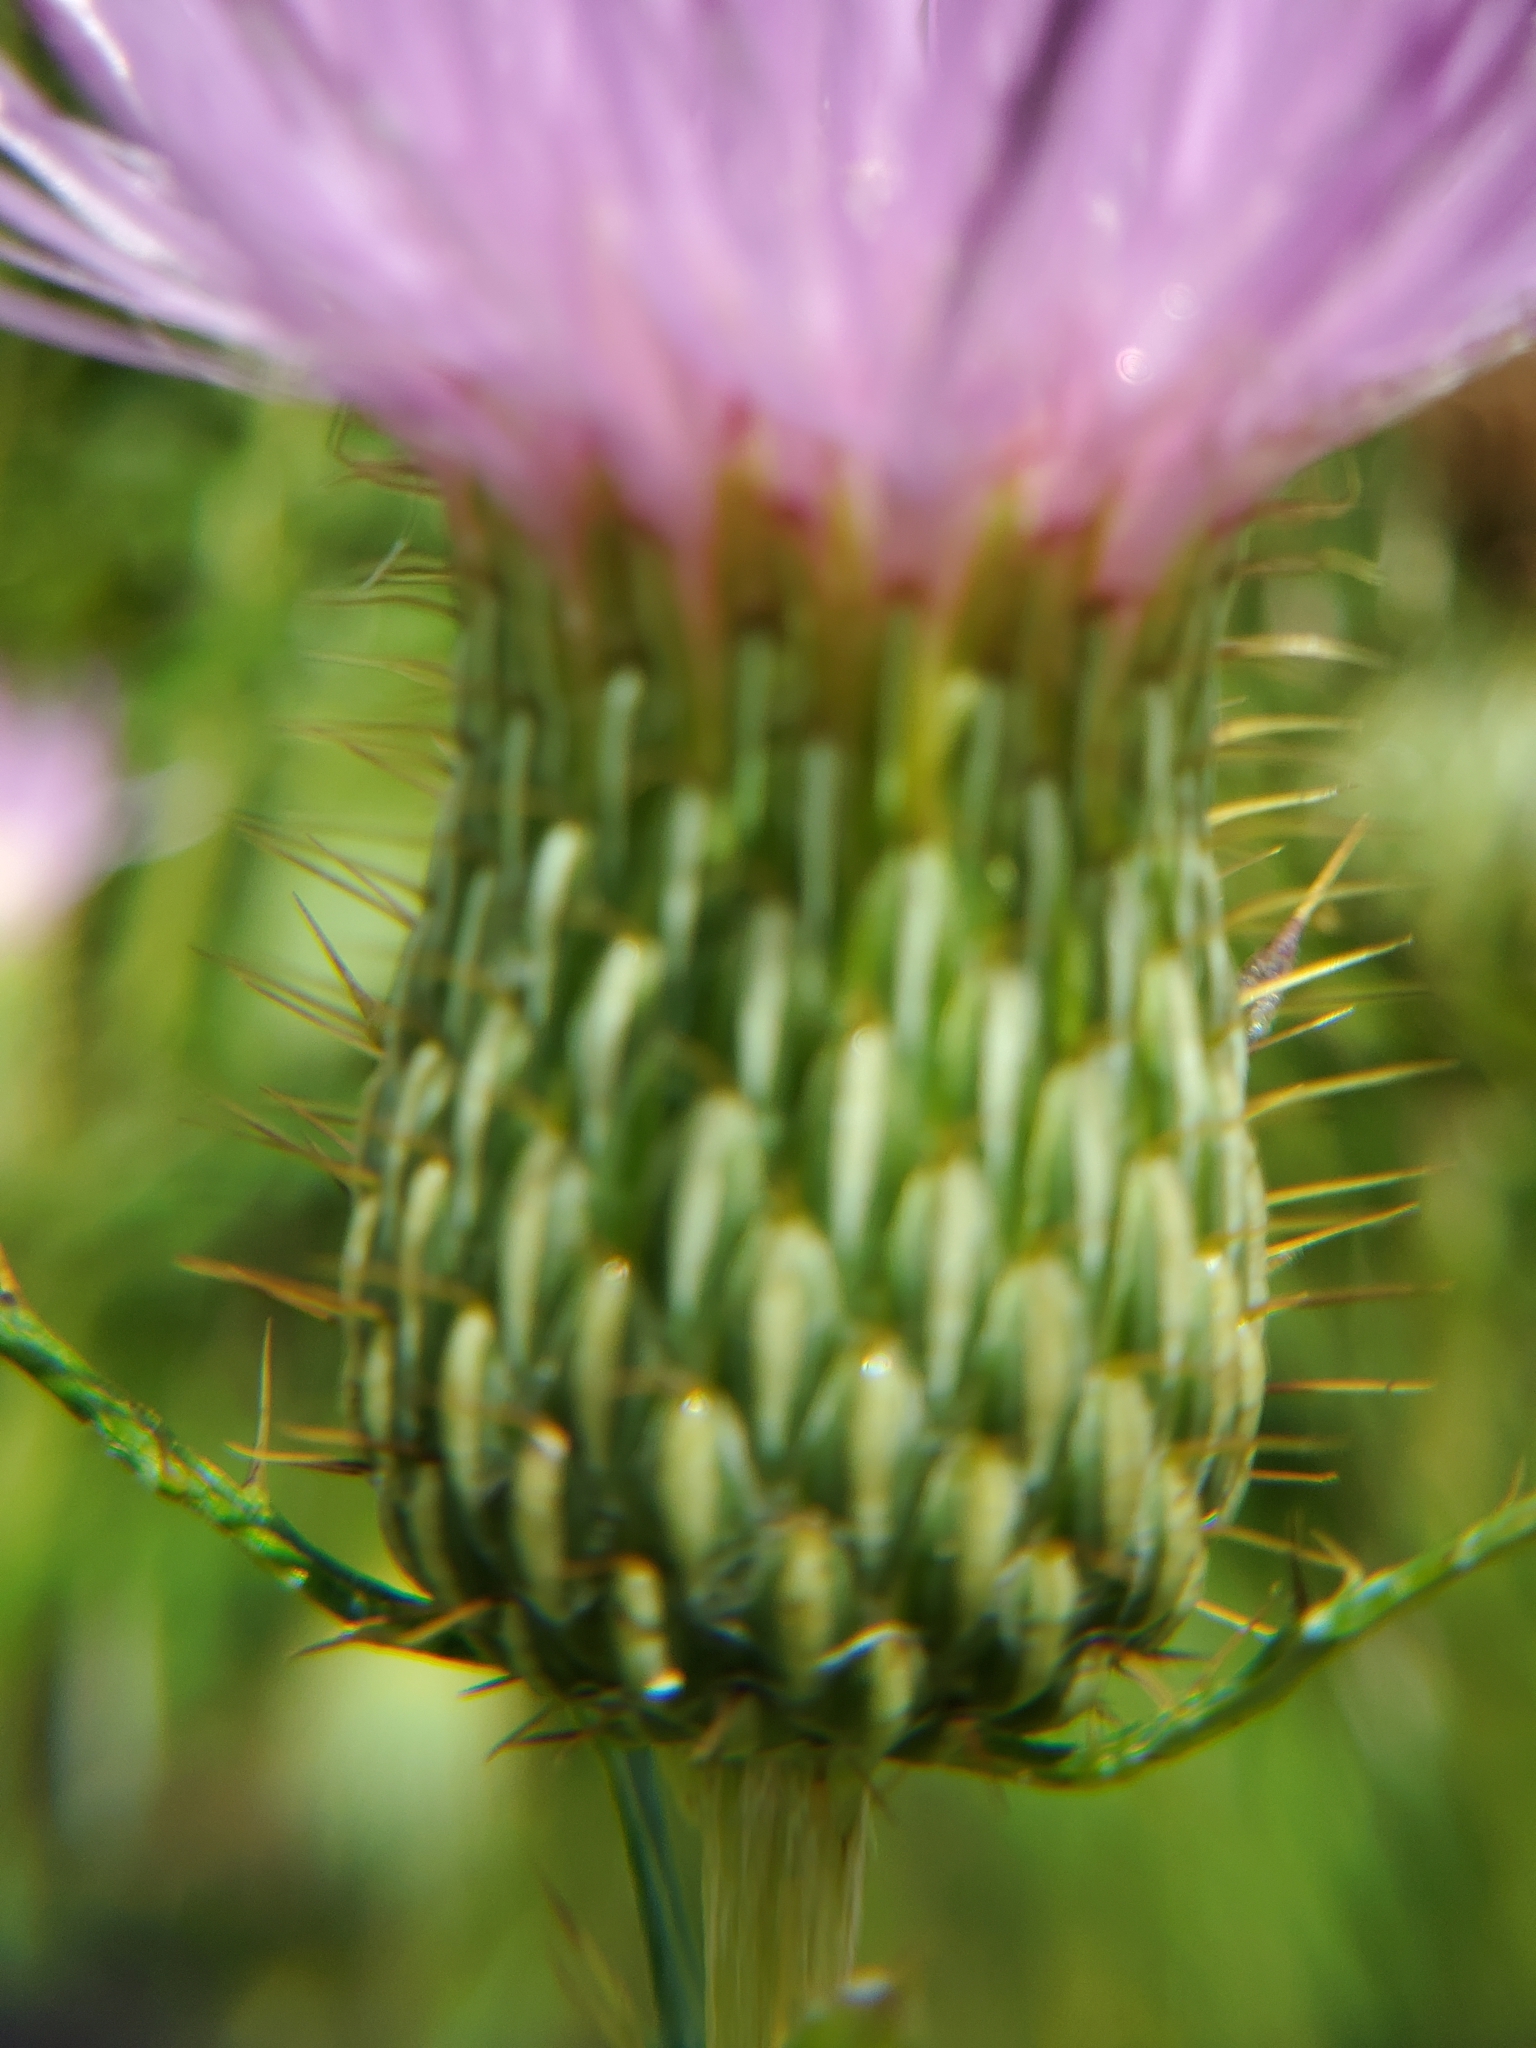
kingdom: Plantae
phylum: Tracheophyta
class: Magnoliopsida
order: Asterales
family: Asteraceae
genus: Cirsium
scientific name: Cirsium discolor
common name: Field thistle
